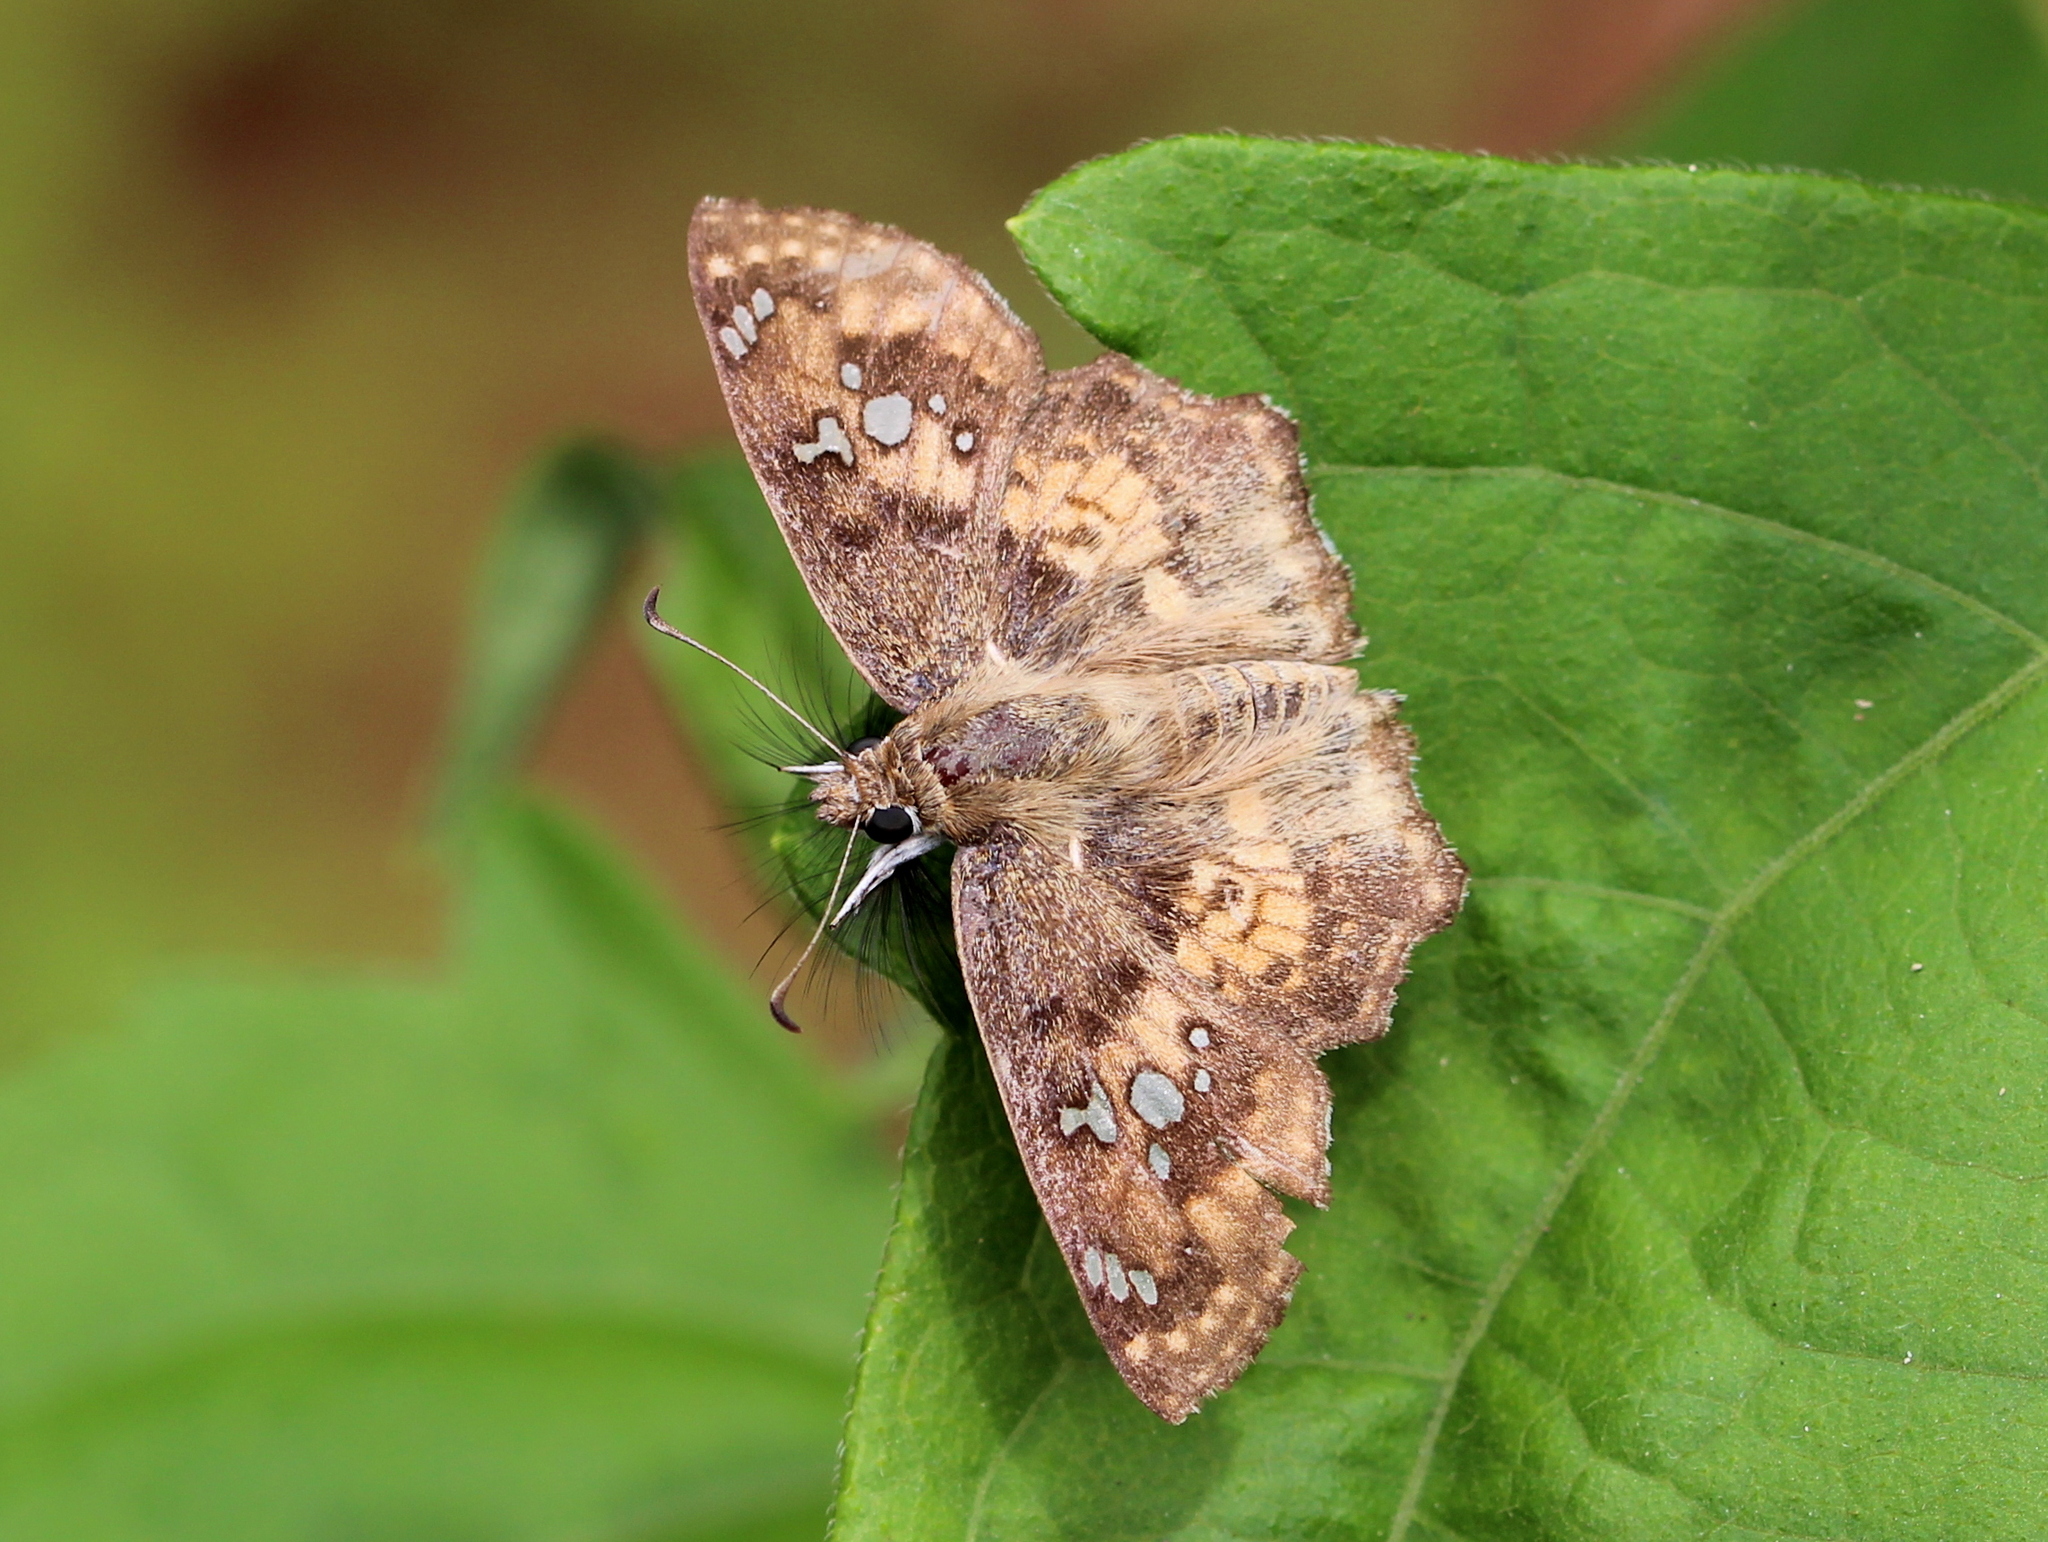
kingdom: Animalia
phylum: Arthropoda
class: Insecta
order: Lepidoptera
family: Hesperiidae
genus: Caprona
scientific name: Caprona ransonnettii
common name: Golden angle
